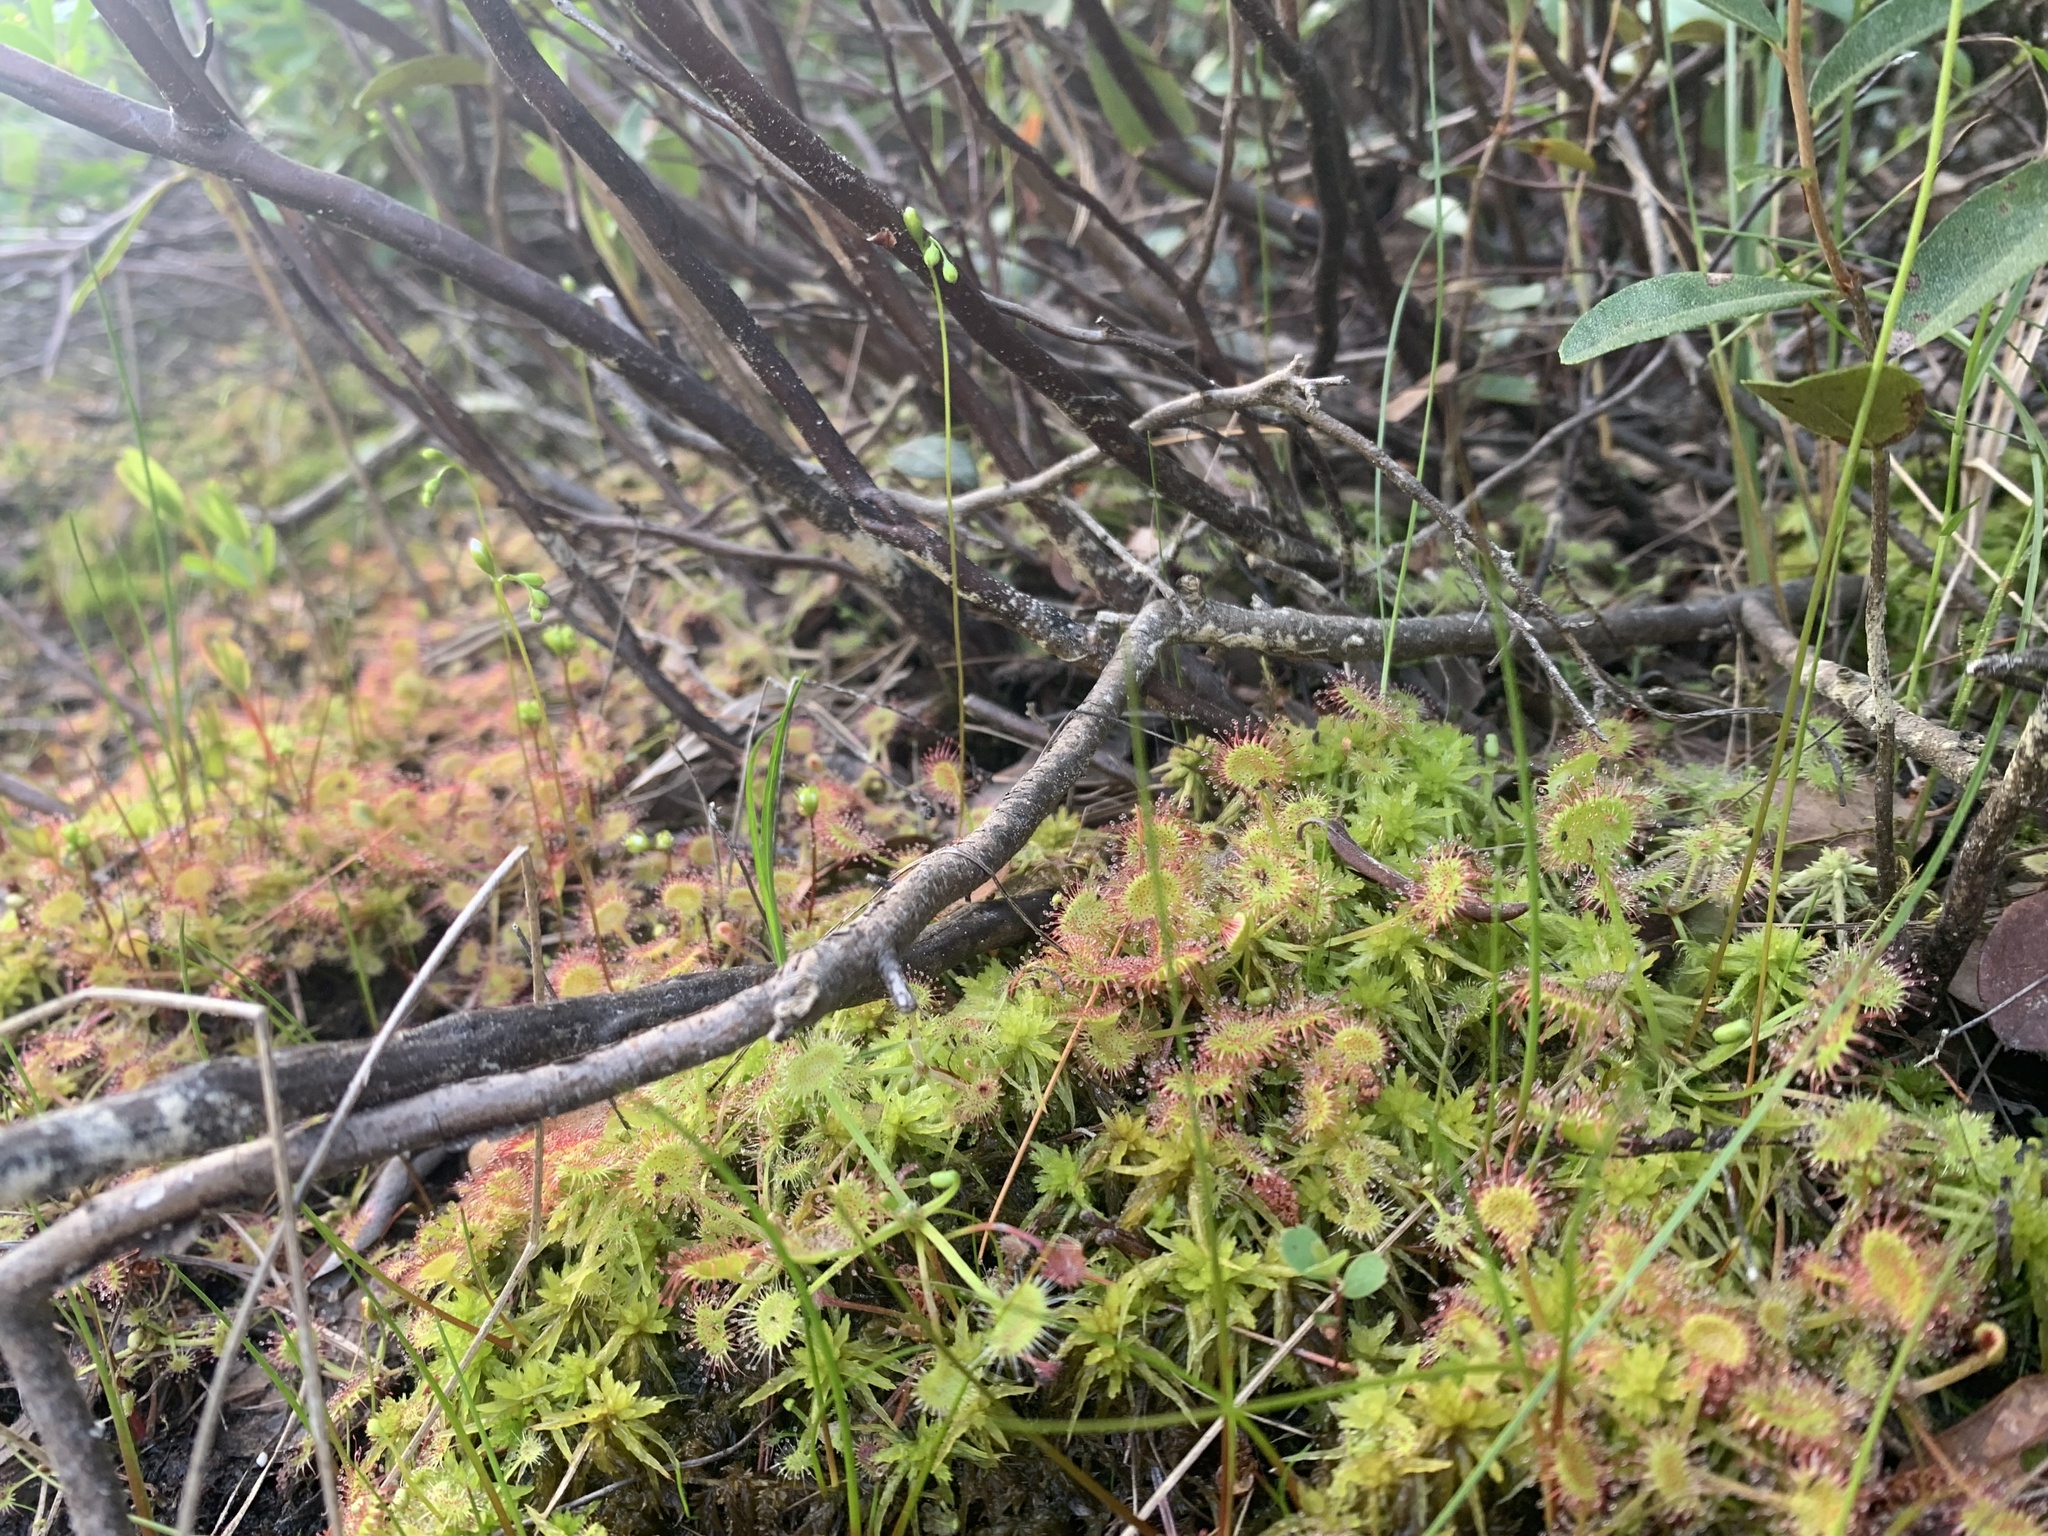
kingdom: Plantae
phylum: Tracheophyta
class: Magnoliopsida
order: Caryophyllales
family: Droseraceae
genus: Drosera
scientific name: Drosera rotundifolia
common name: Round-leaved sundew
